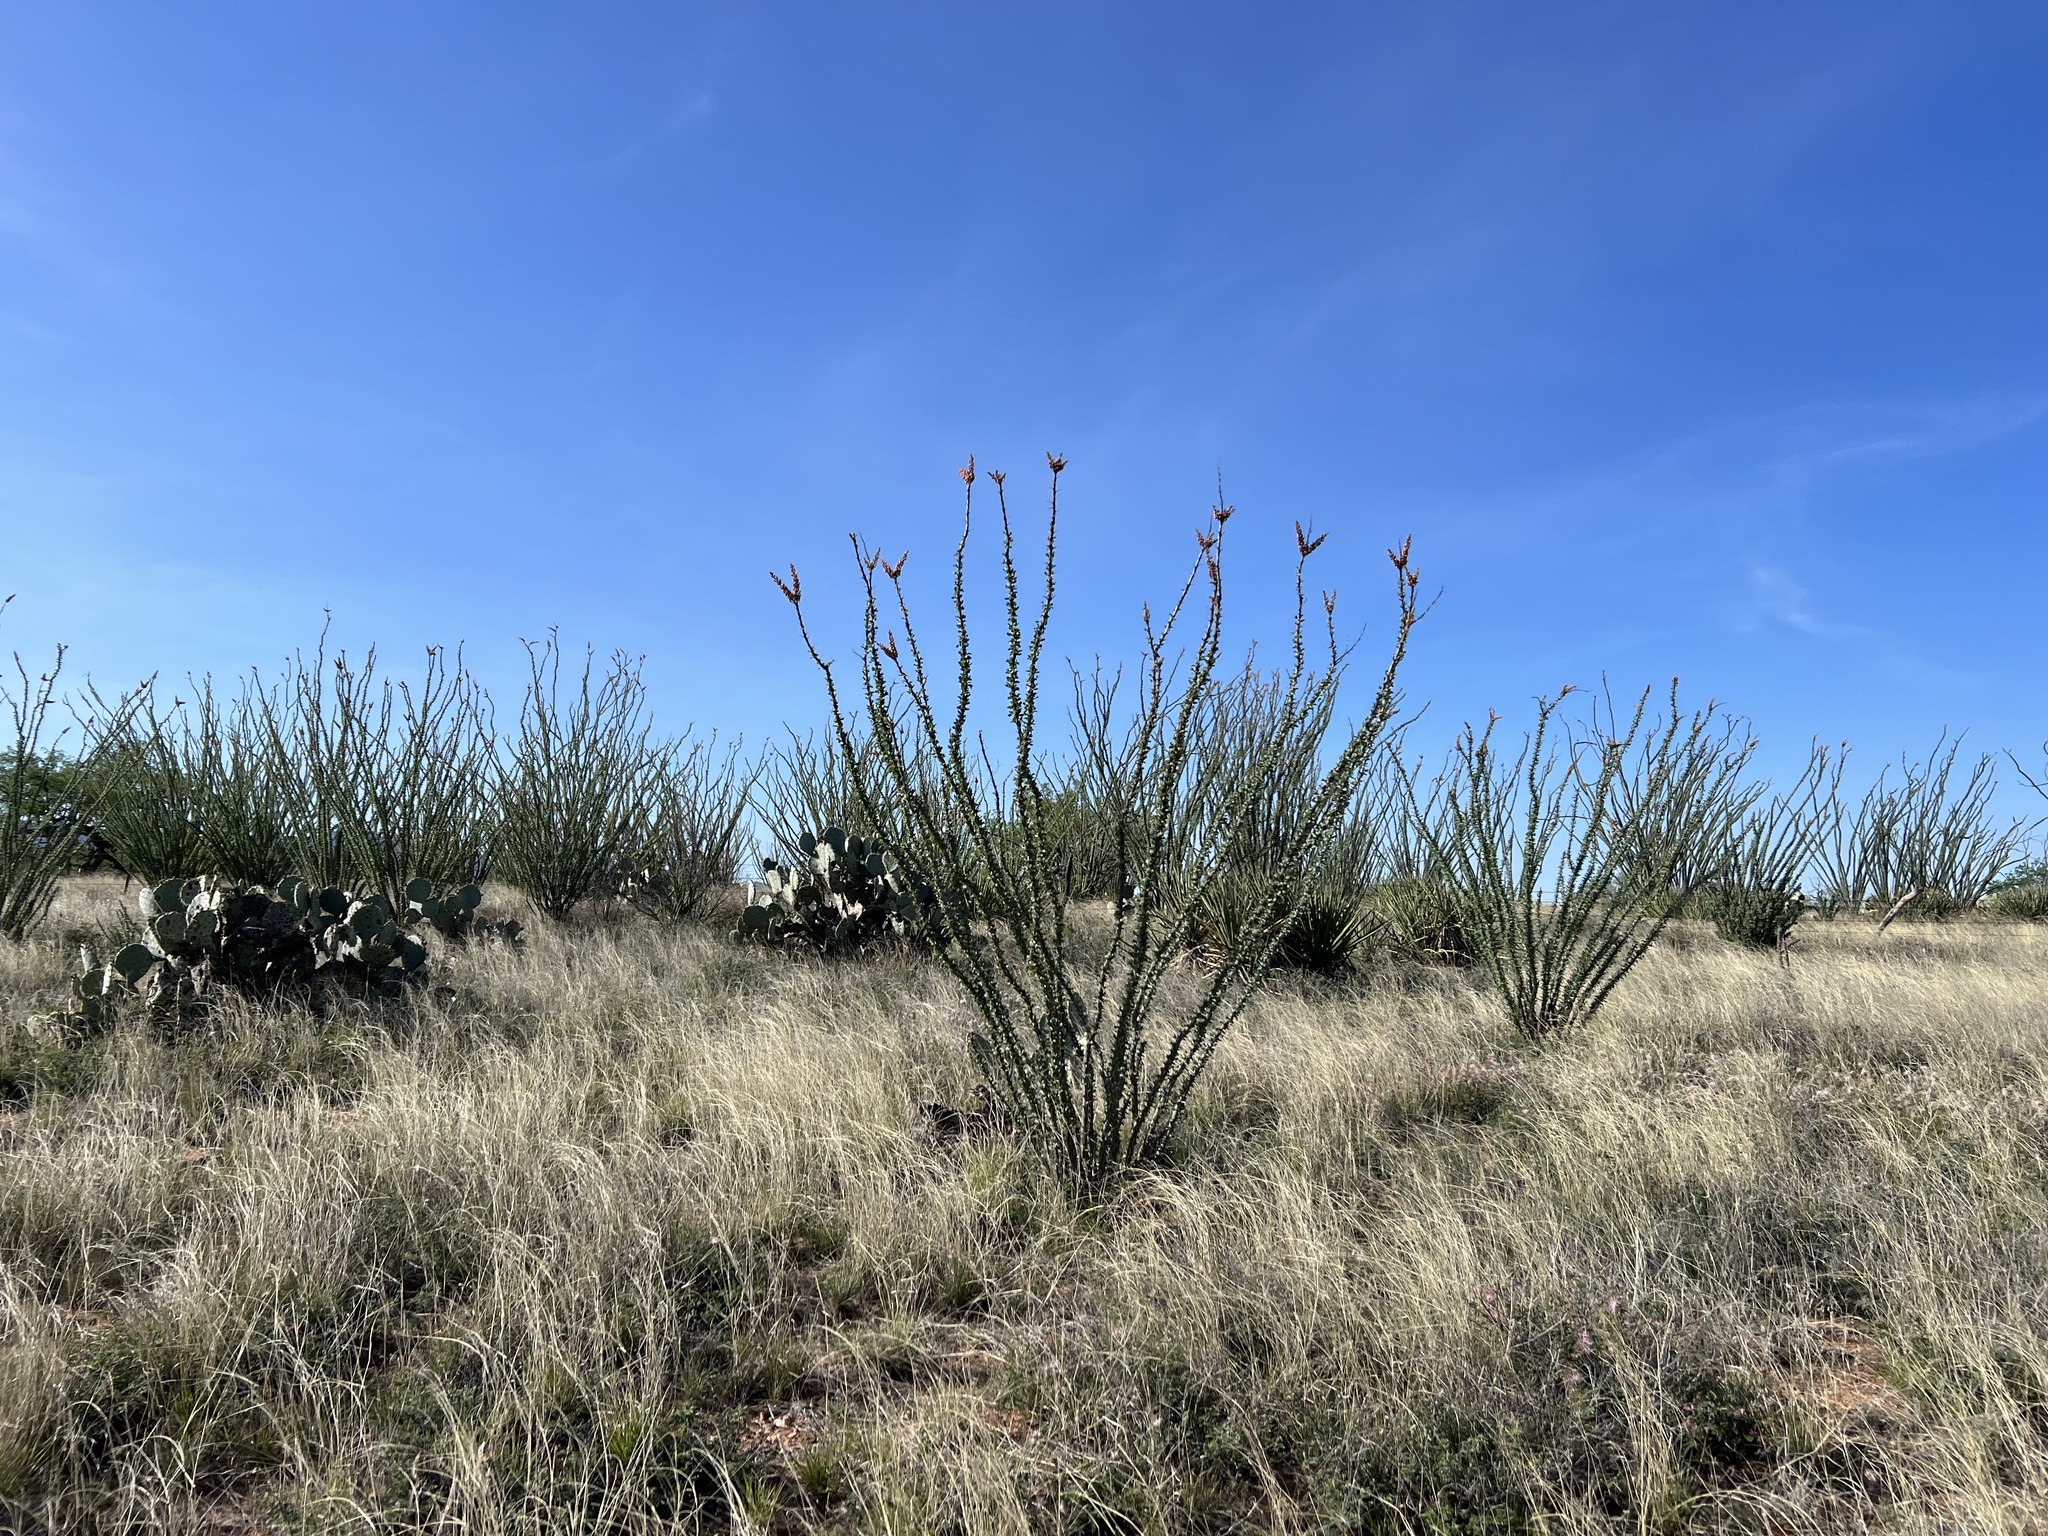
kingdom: Plantae
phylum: Tracheophyta
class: Magnoliopsida
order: Ericales
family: Fouquieriaceae
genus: Fouquieria
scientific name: Fouquieria splendens
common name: Vine-cactus
